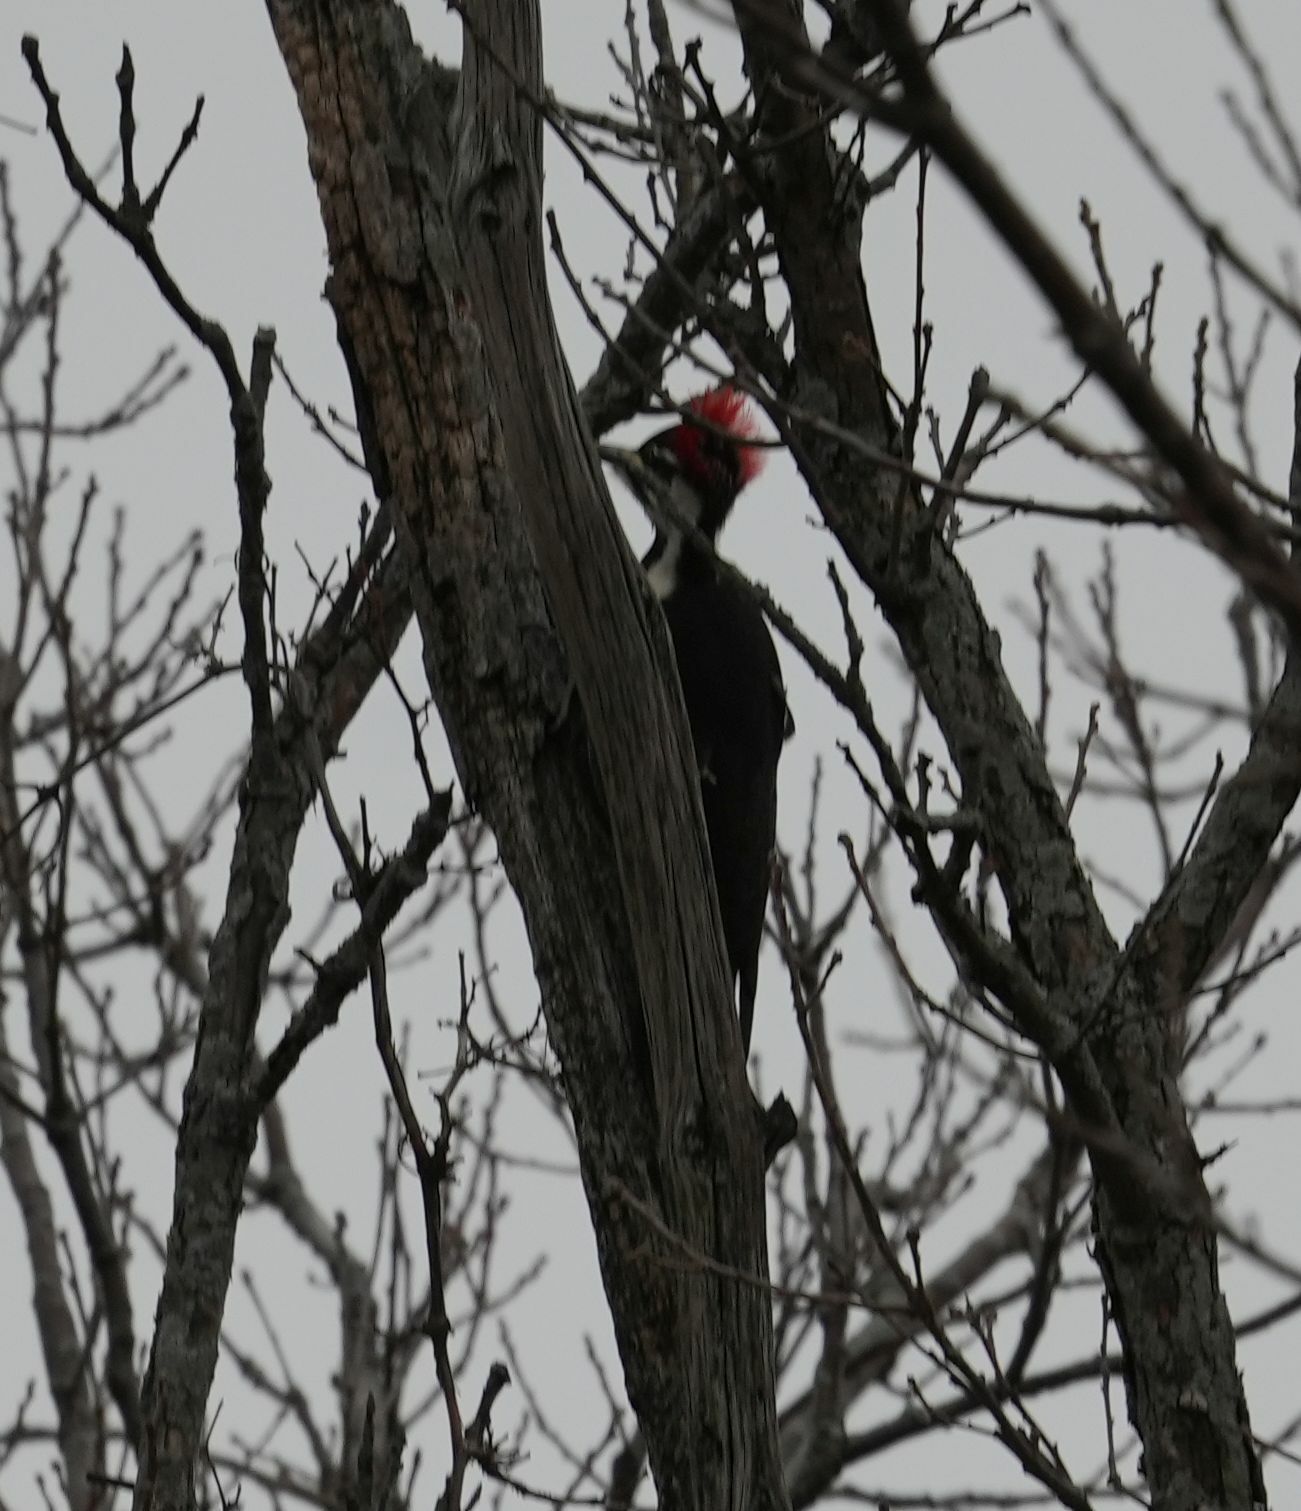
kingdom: Animalia
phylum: Chordata
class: Aves
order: Piciformes
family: Picidae
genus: Dryocopus
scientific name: Dryocopus pileatus
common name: Pileated woodpecker
